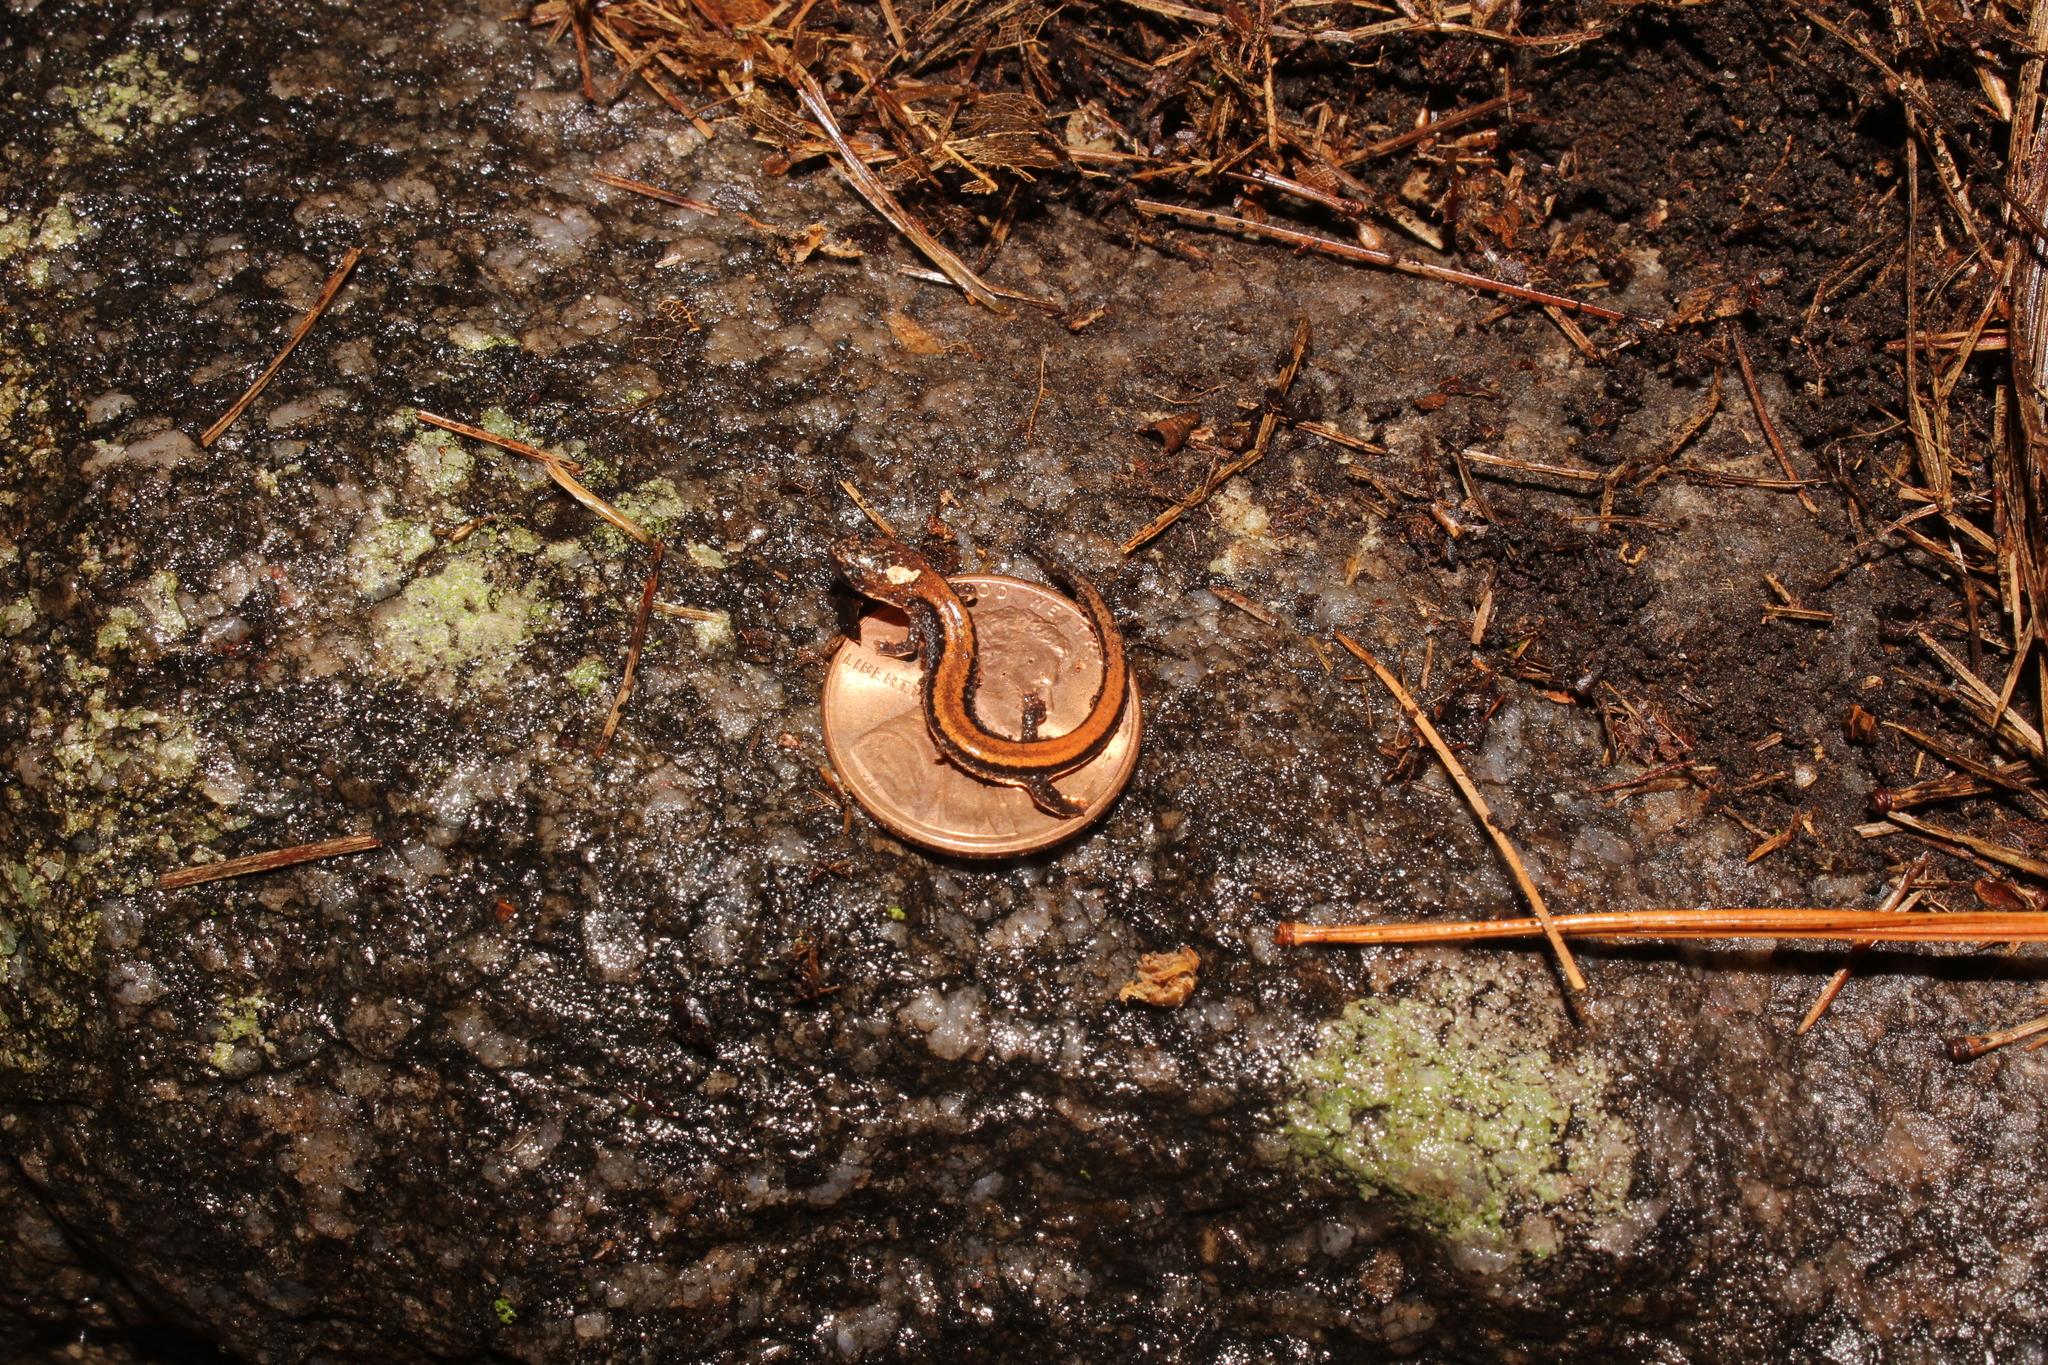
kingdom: Animalia
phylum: Chordata
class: Amphibia
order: Caudata
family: Plethodontidae
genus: Plethodon
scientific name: Plethodon cinereus
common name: Redback salamander
